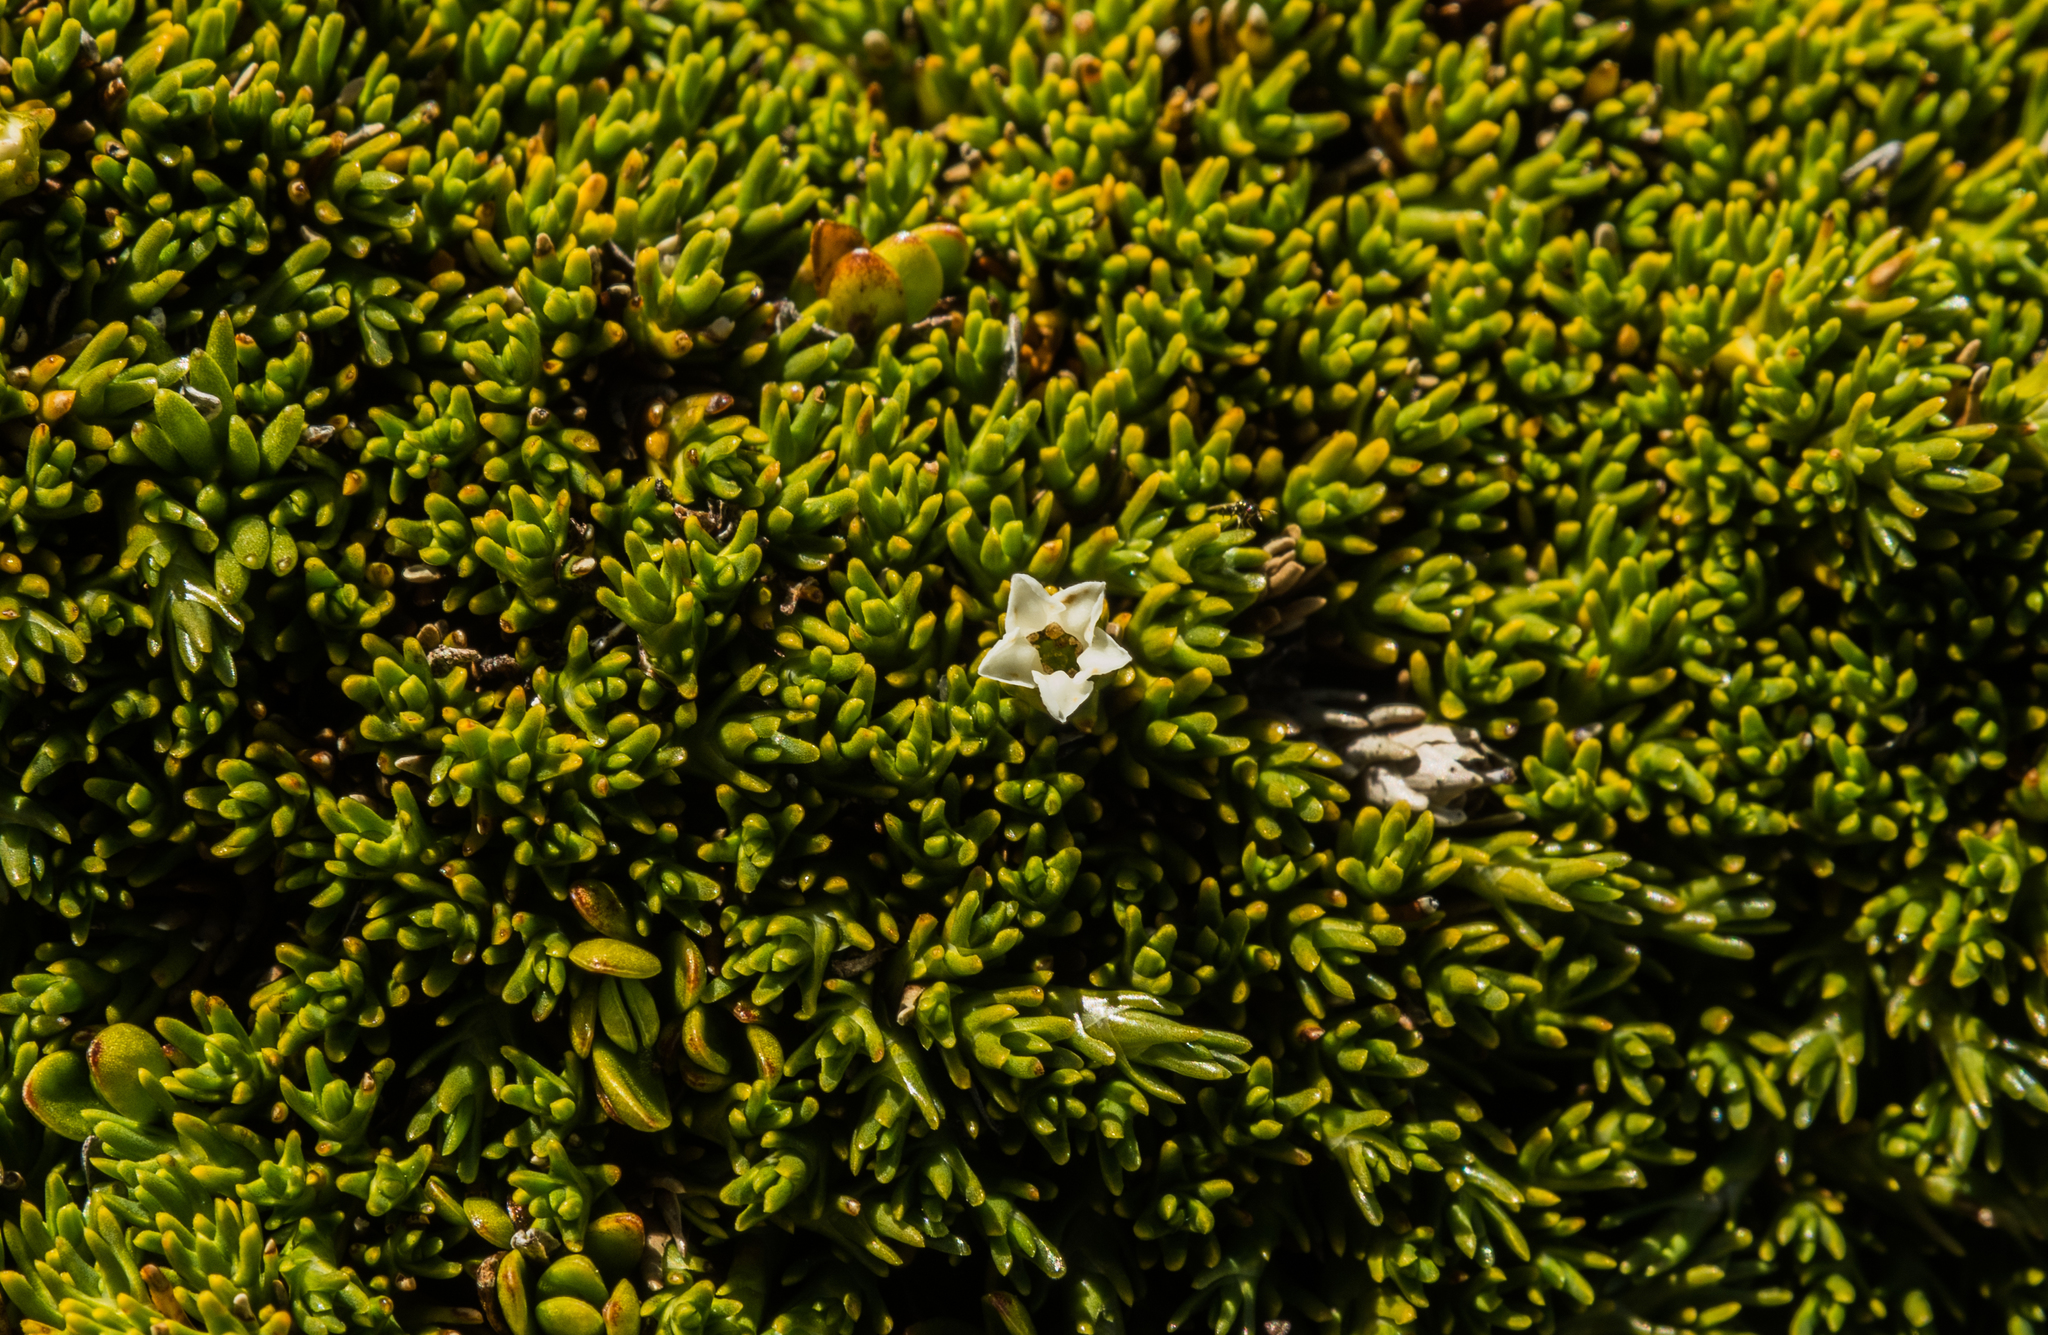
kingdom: Plantae
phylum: Tracheophyta
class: Magnoliopsida
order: Ericales
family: Ericaceae
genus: Dracophyllum
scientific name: Dracophyllum muscoides
